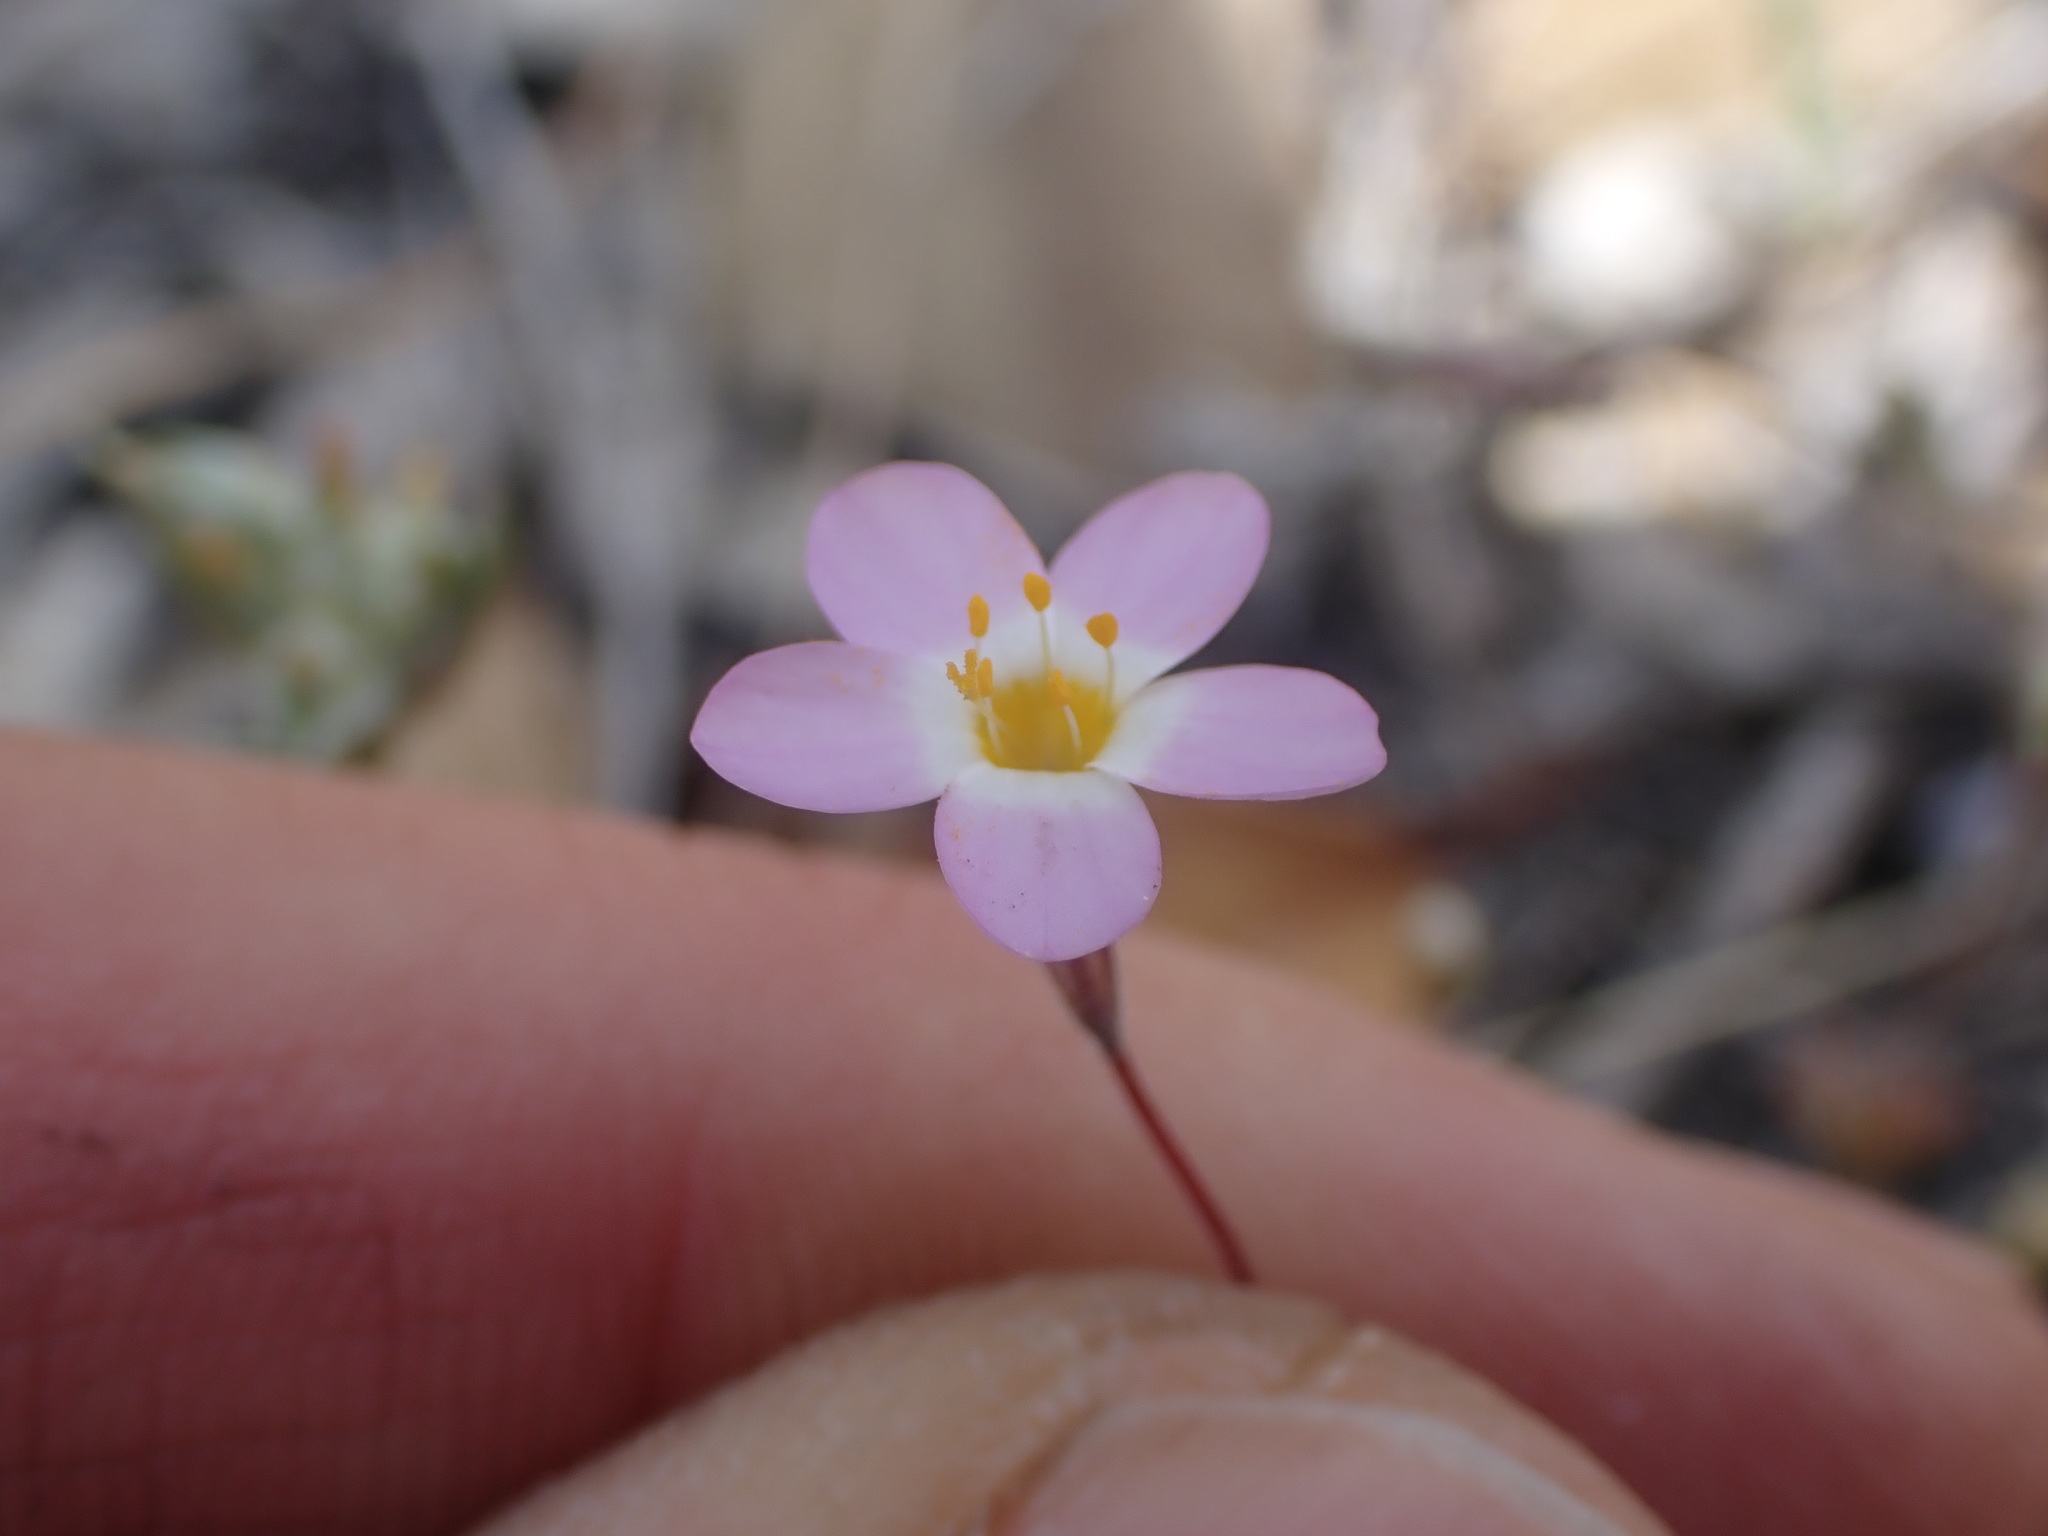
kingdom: Plantae
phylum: Tracheophyta
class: Magnoliopsida
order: Ericales
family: Polemoniaceae
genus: Leptosiphon
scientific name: Leptosiphon ambiguus
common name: Serpentine linanthus
